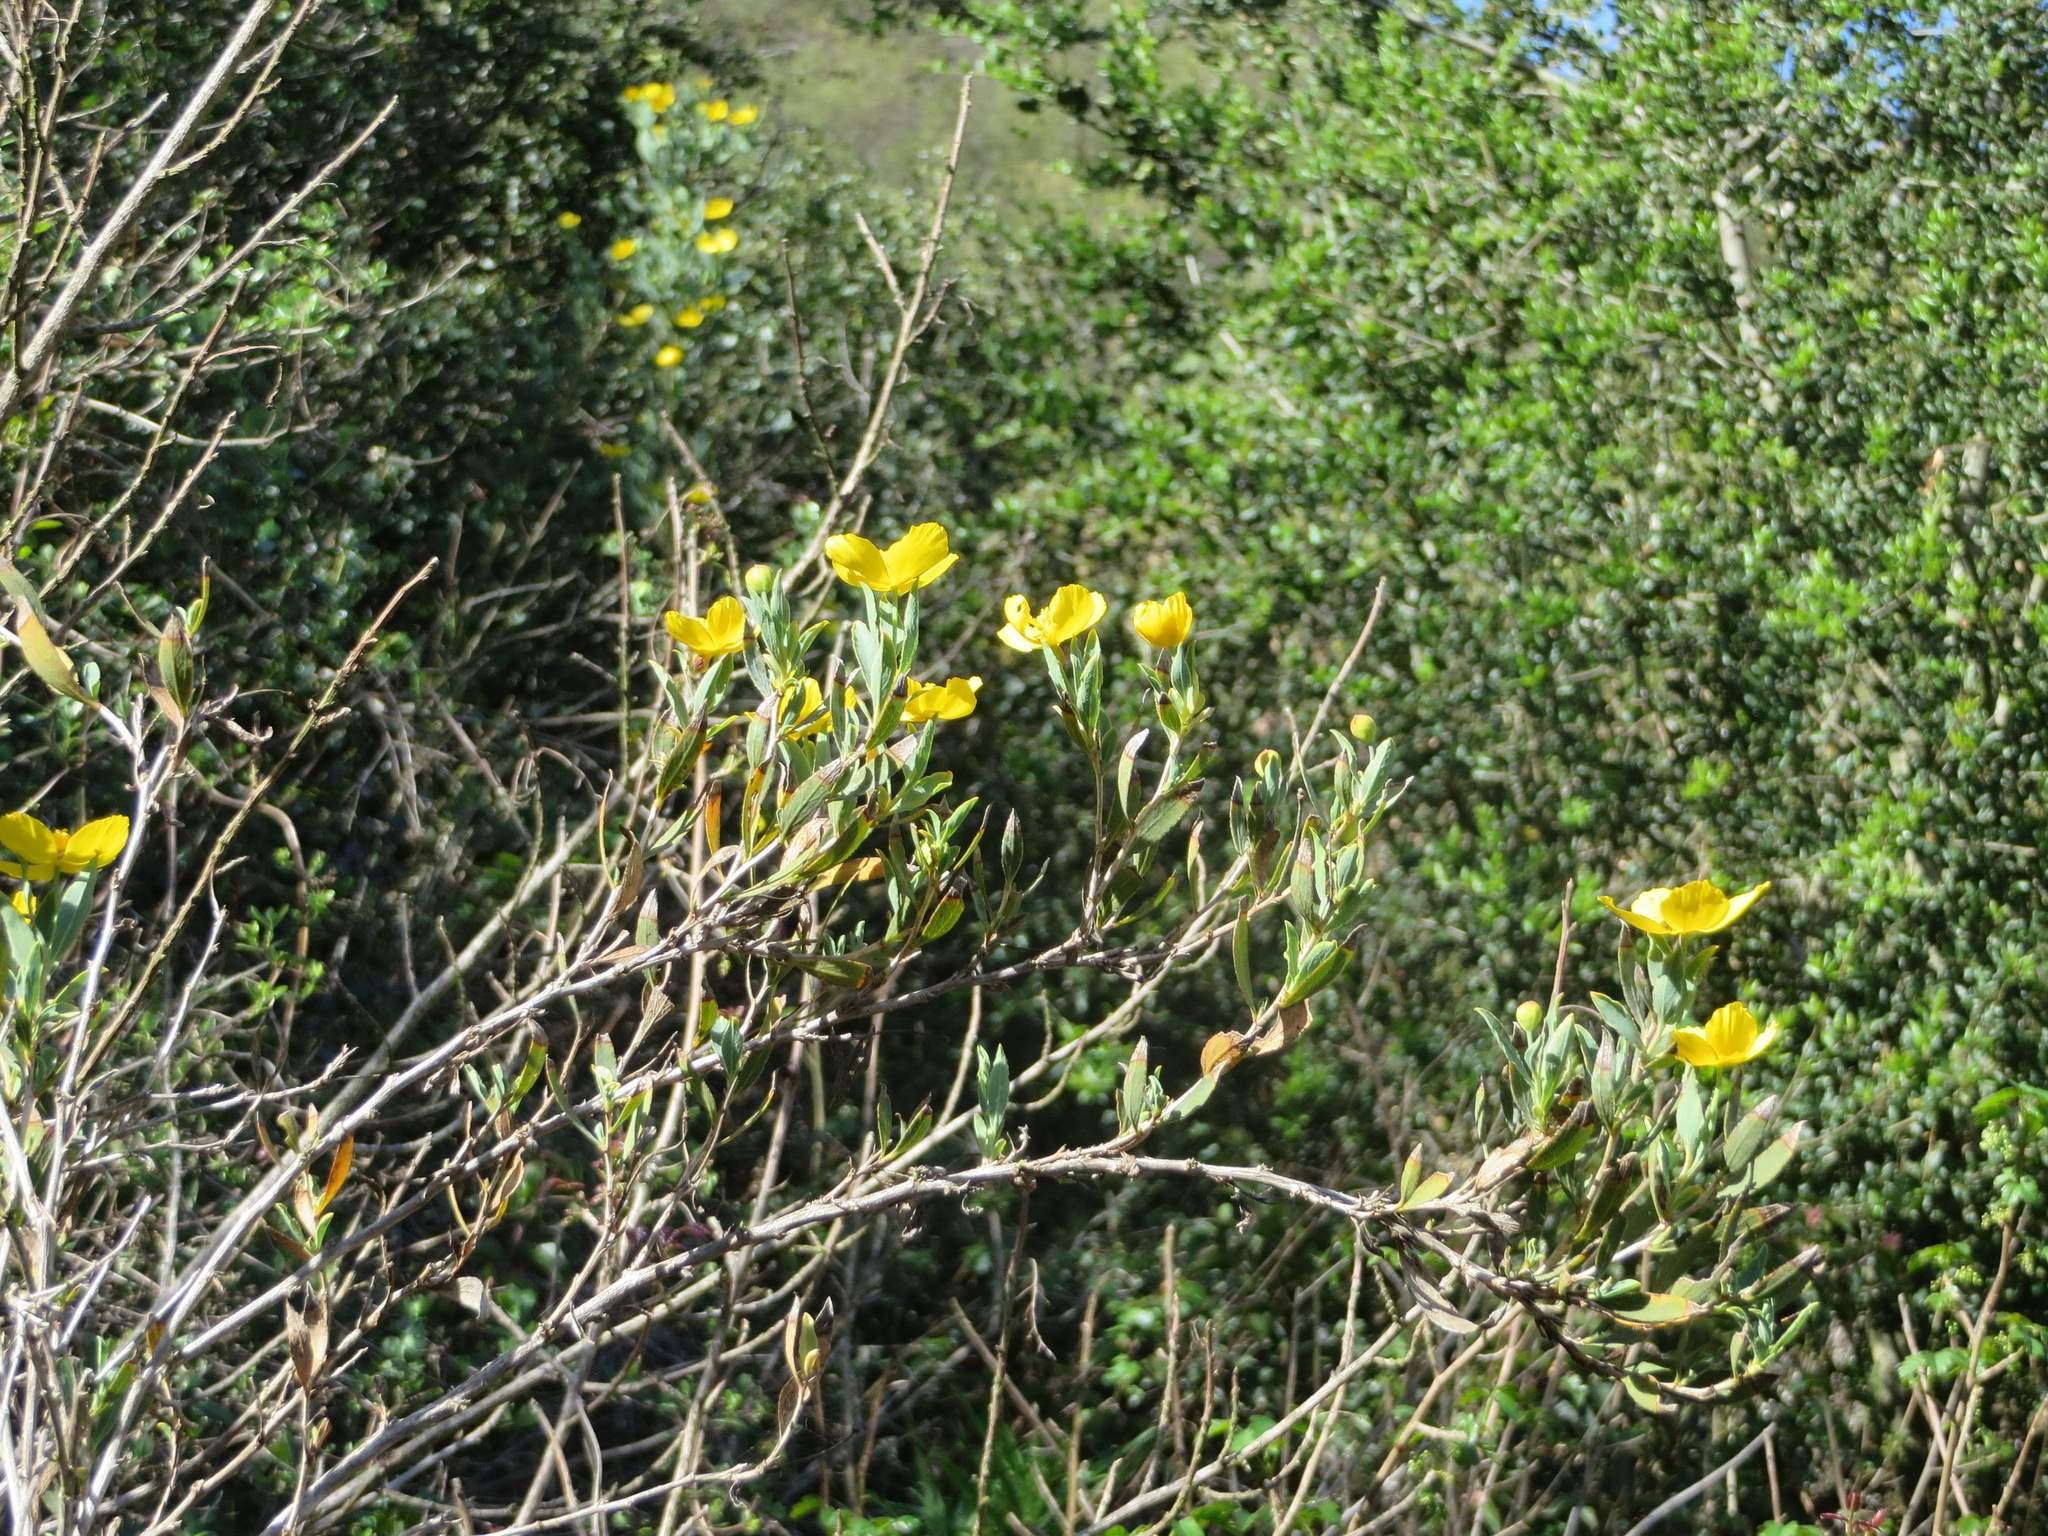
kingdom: Plantae
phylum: Tracheophyta
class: Magnoliopsida
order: Ranunculales
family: Papaveraceae
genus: Dendromecon
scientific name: Dendromecon rigida
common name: Tree poppy
